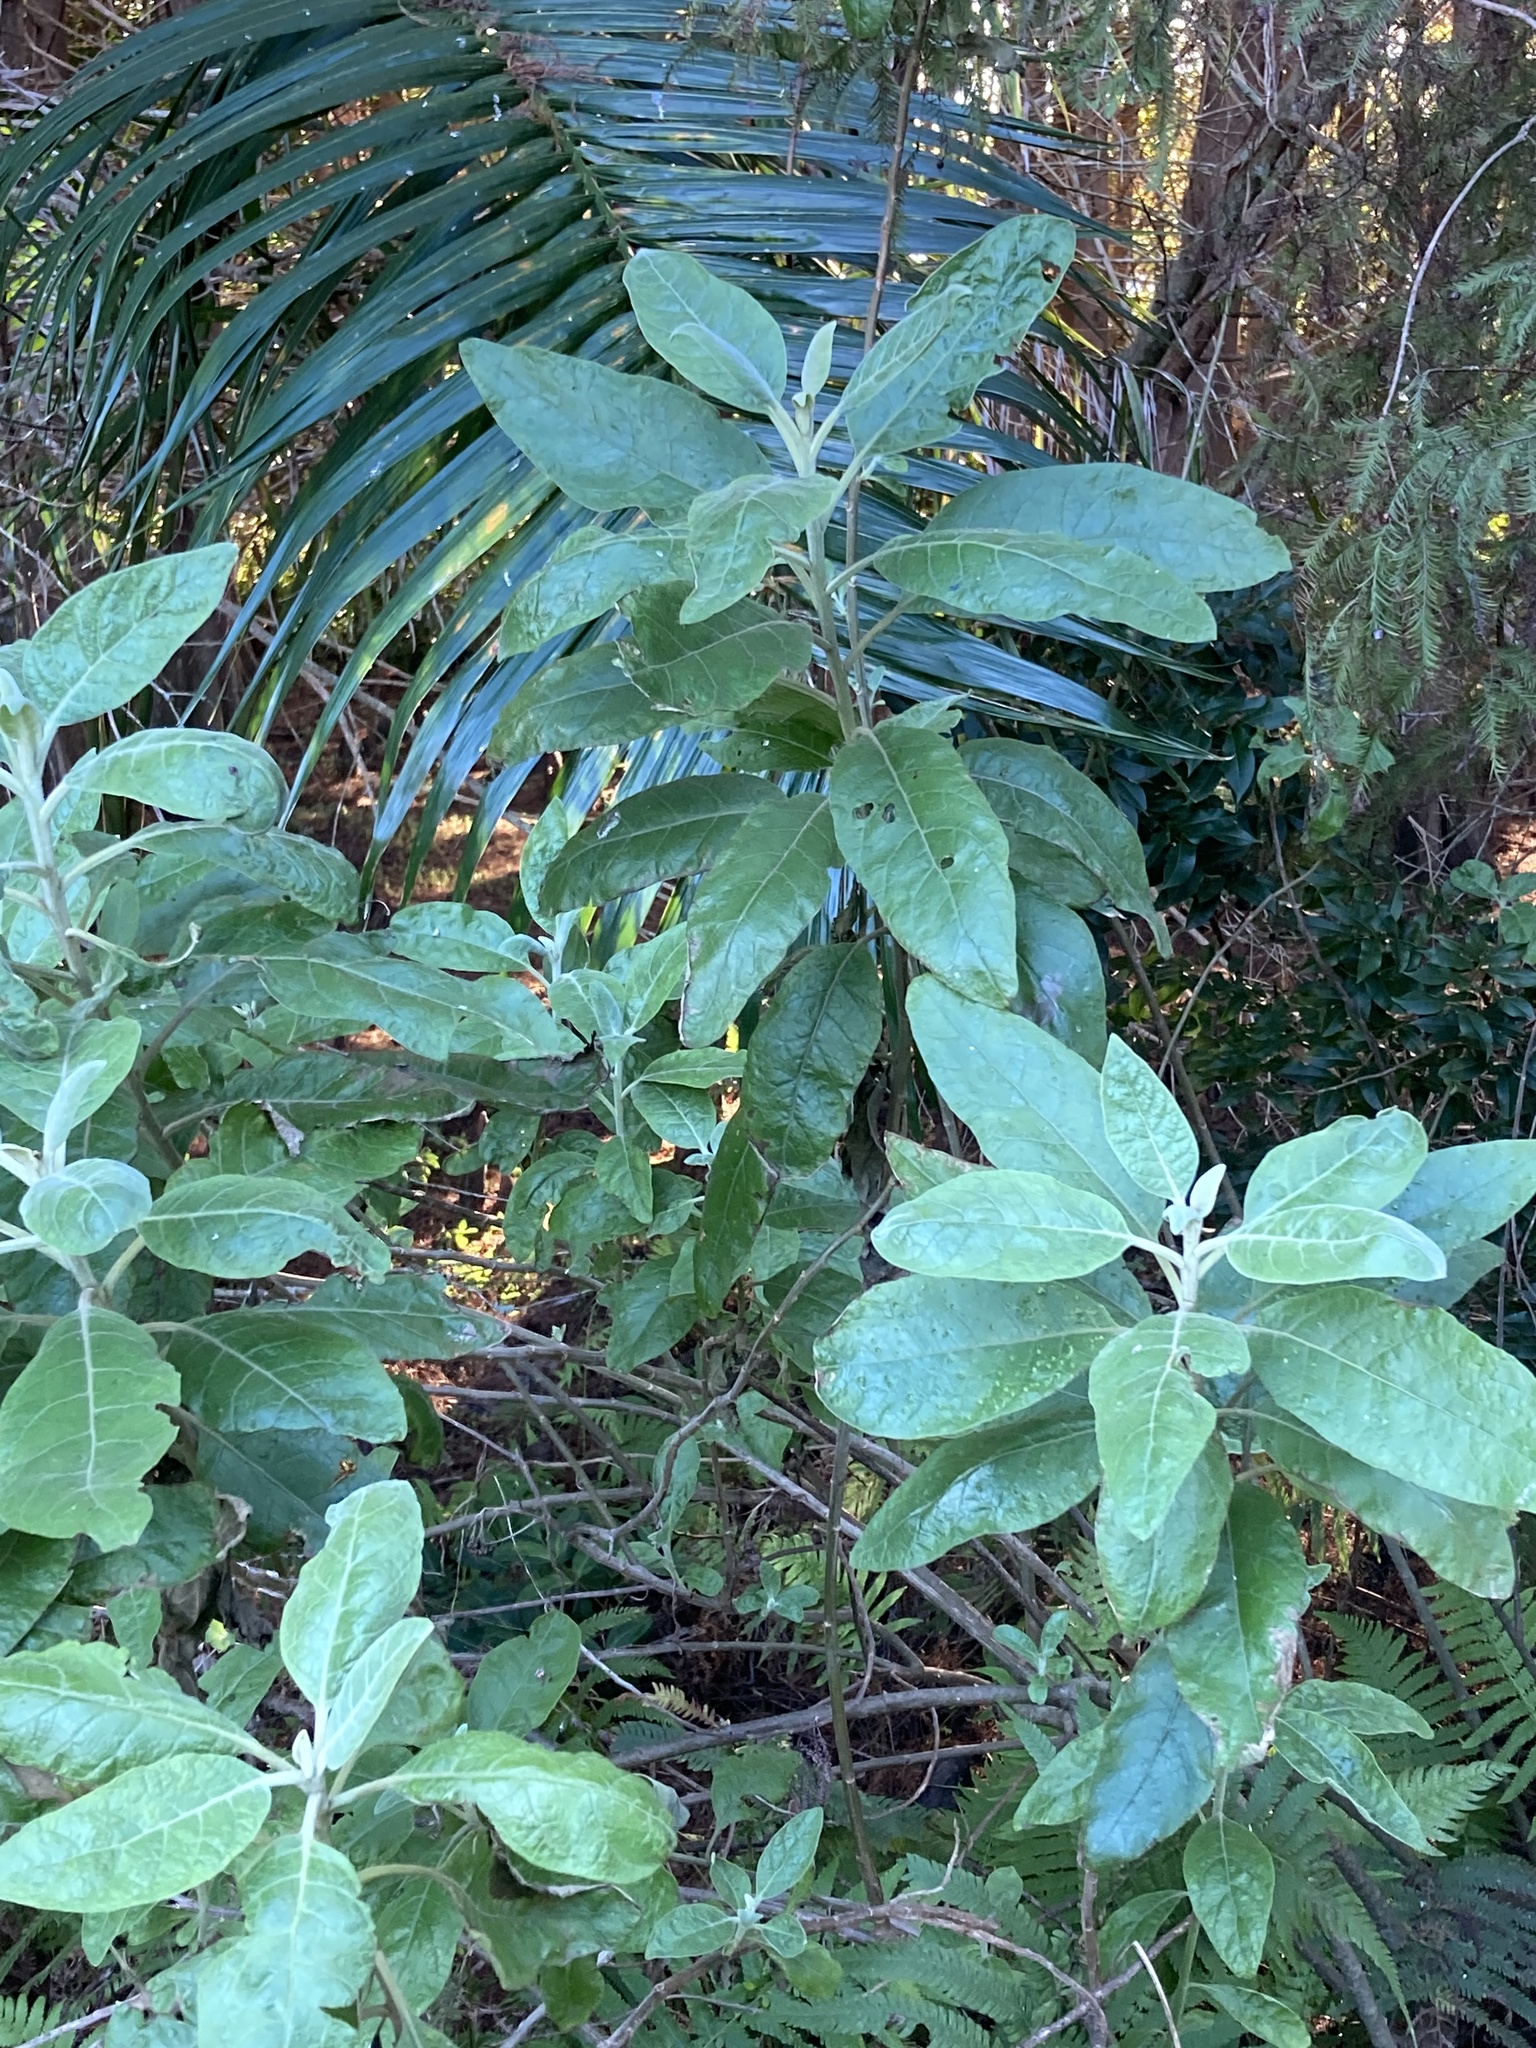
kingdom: Plantae
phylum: Tracheophyta
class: Magnoliopsida
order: Asterales
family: Asteraceae
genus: Pluchea
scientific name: Pluchea carolinensis
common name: Marsh fleabane
